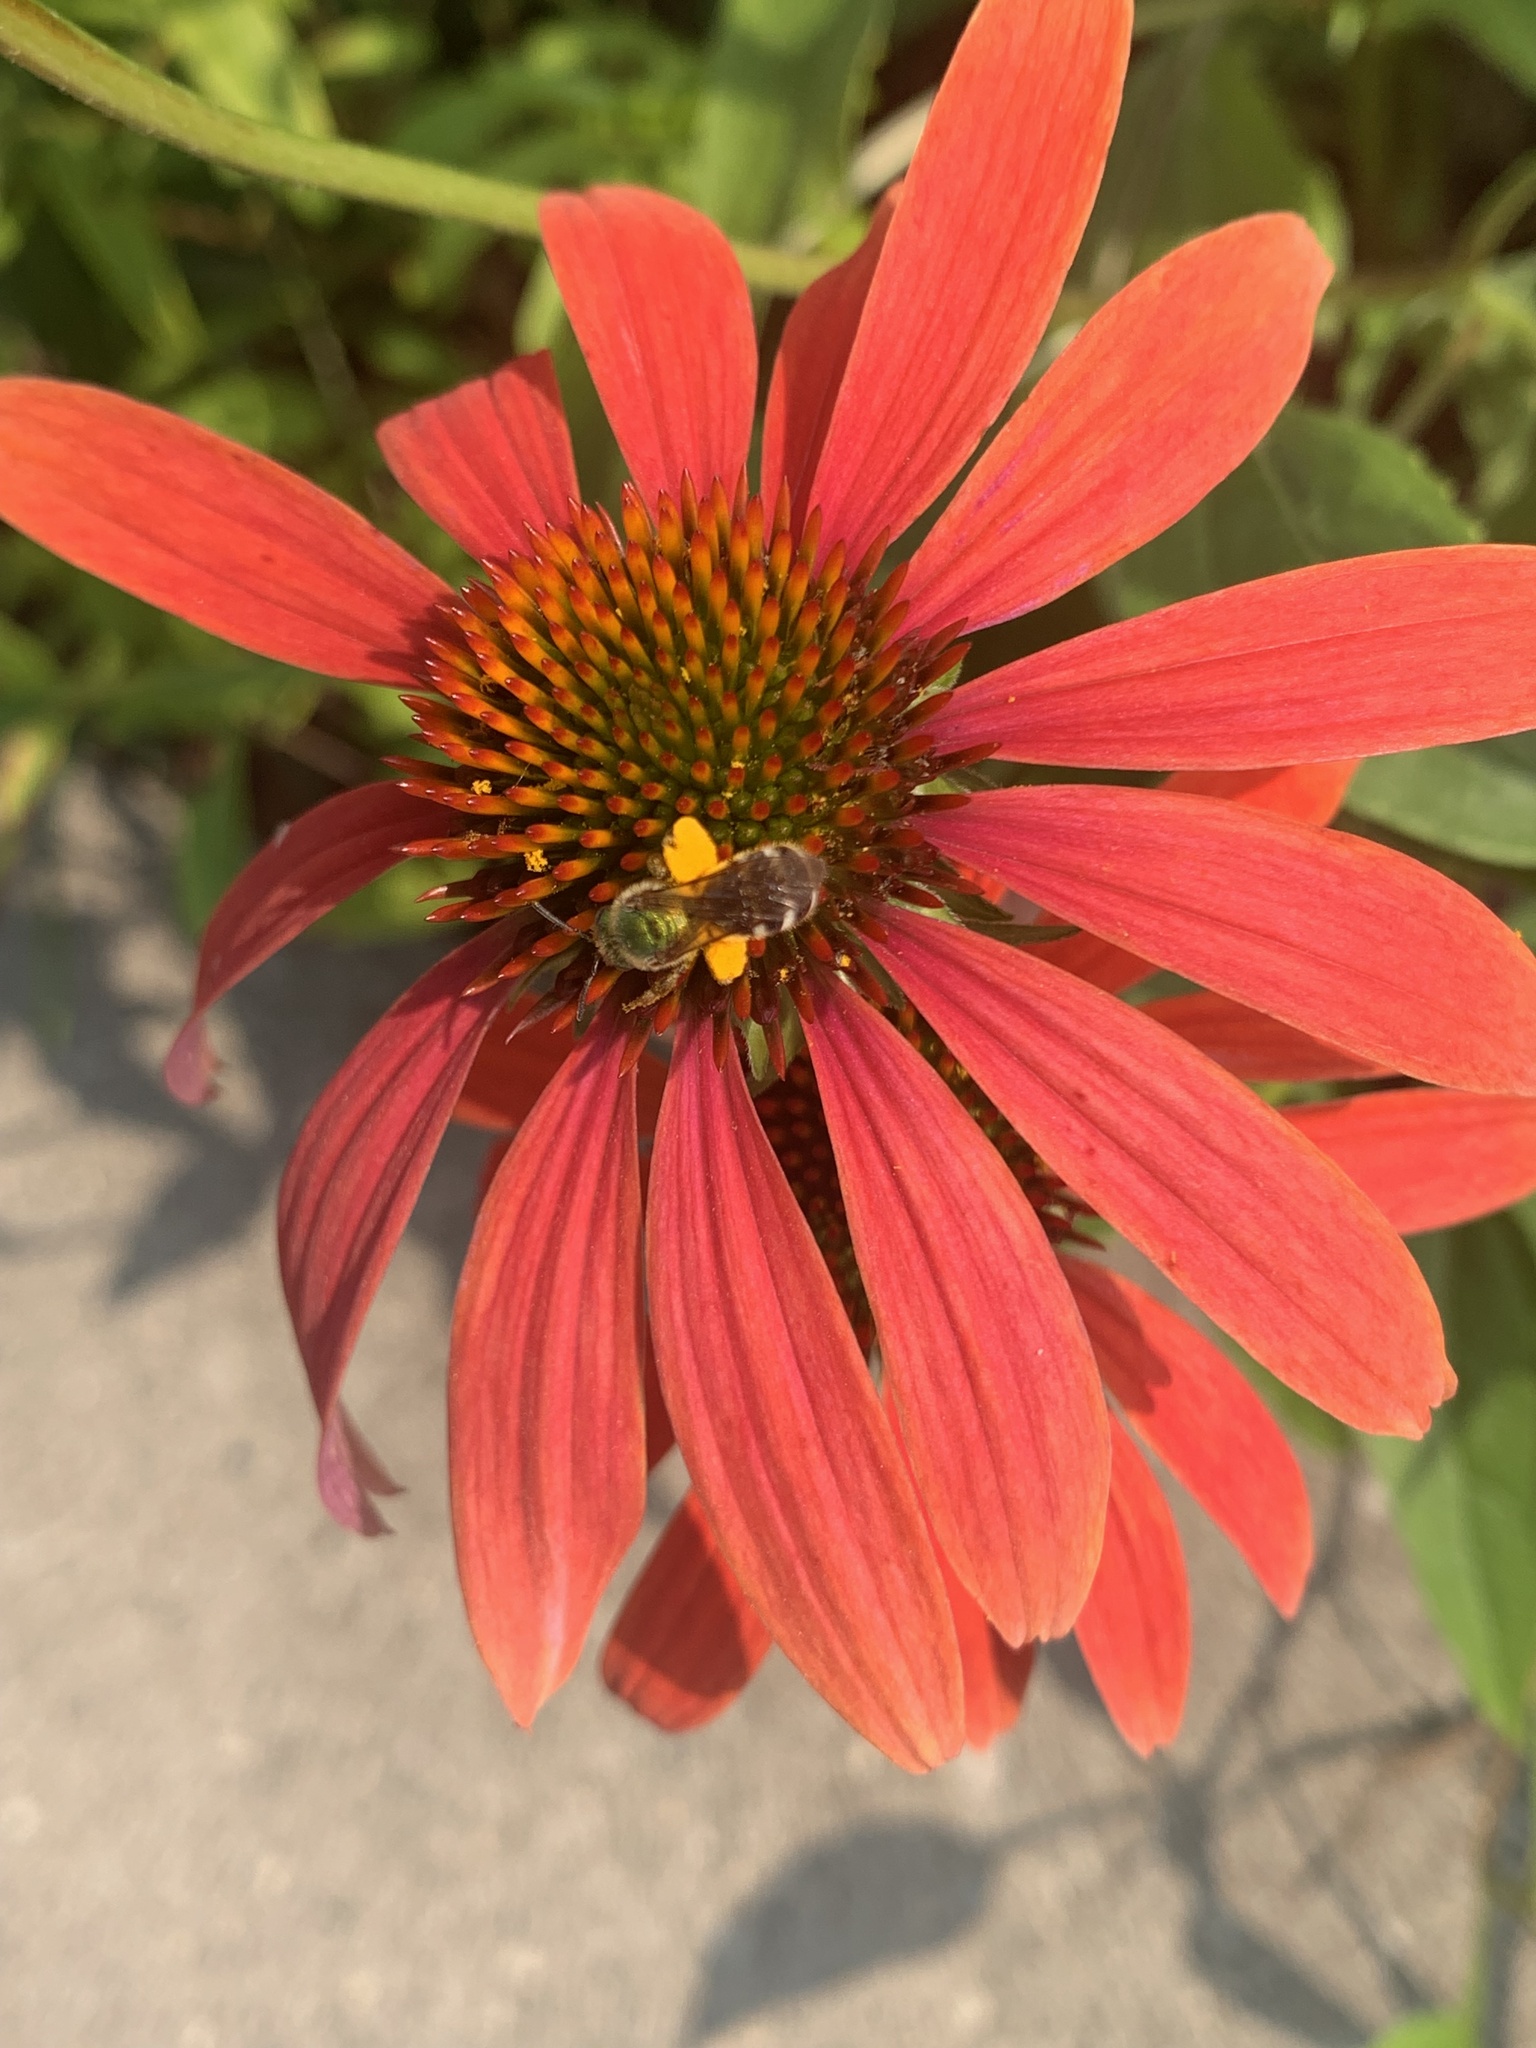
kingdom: Animalia
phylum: Arthropoda
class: Insecta
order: Hymenoptera
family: Halictidae
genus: Agapostemon
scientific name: Agapostemon virescens
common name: Bicolored striped sweat bee
